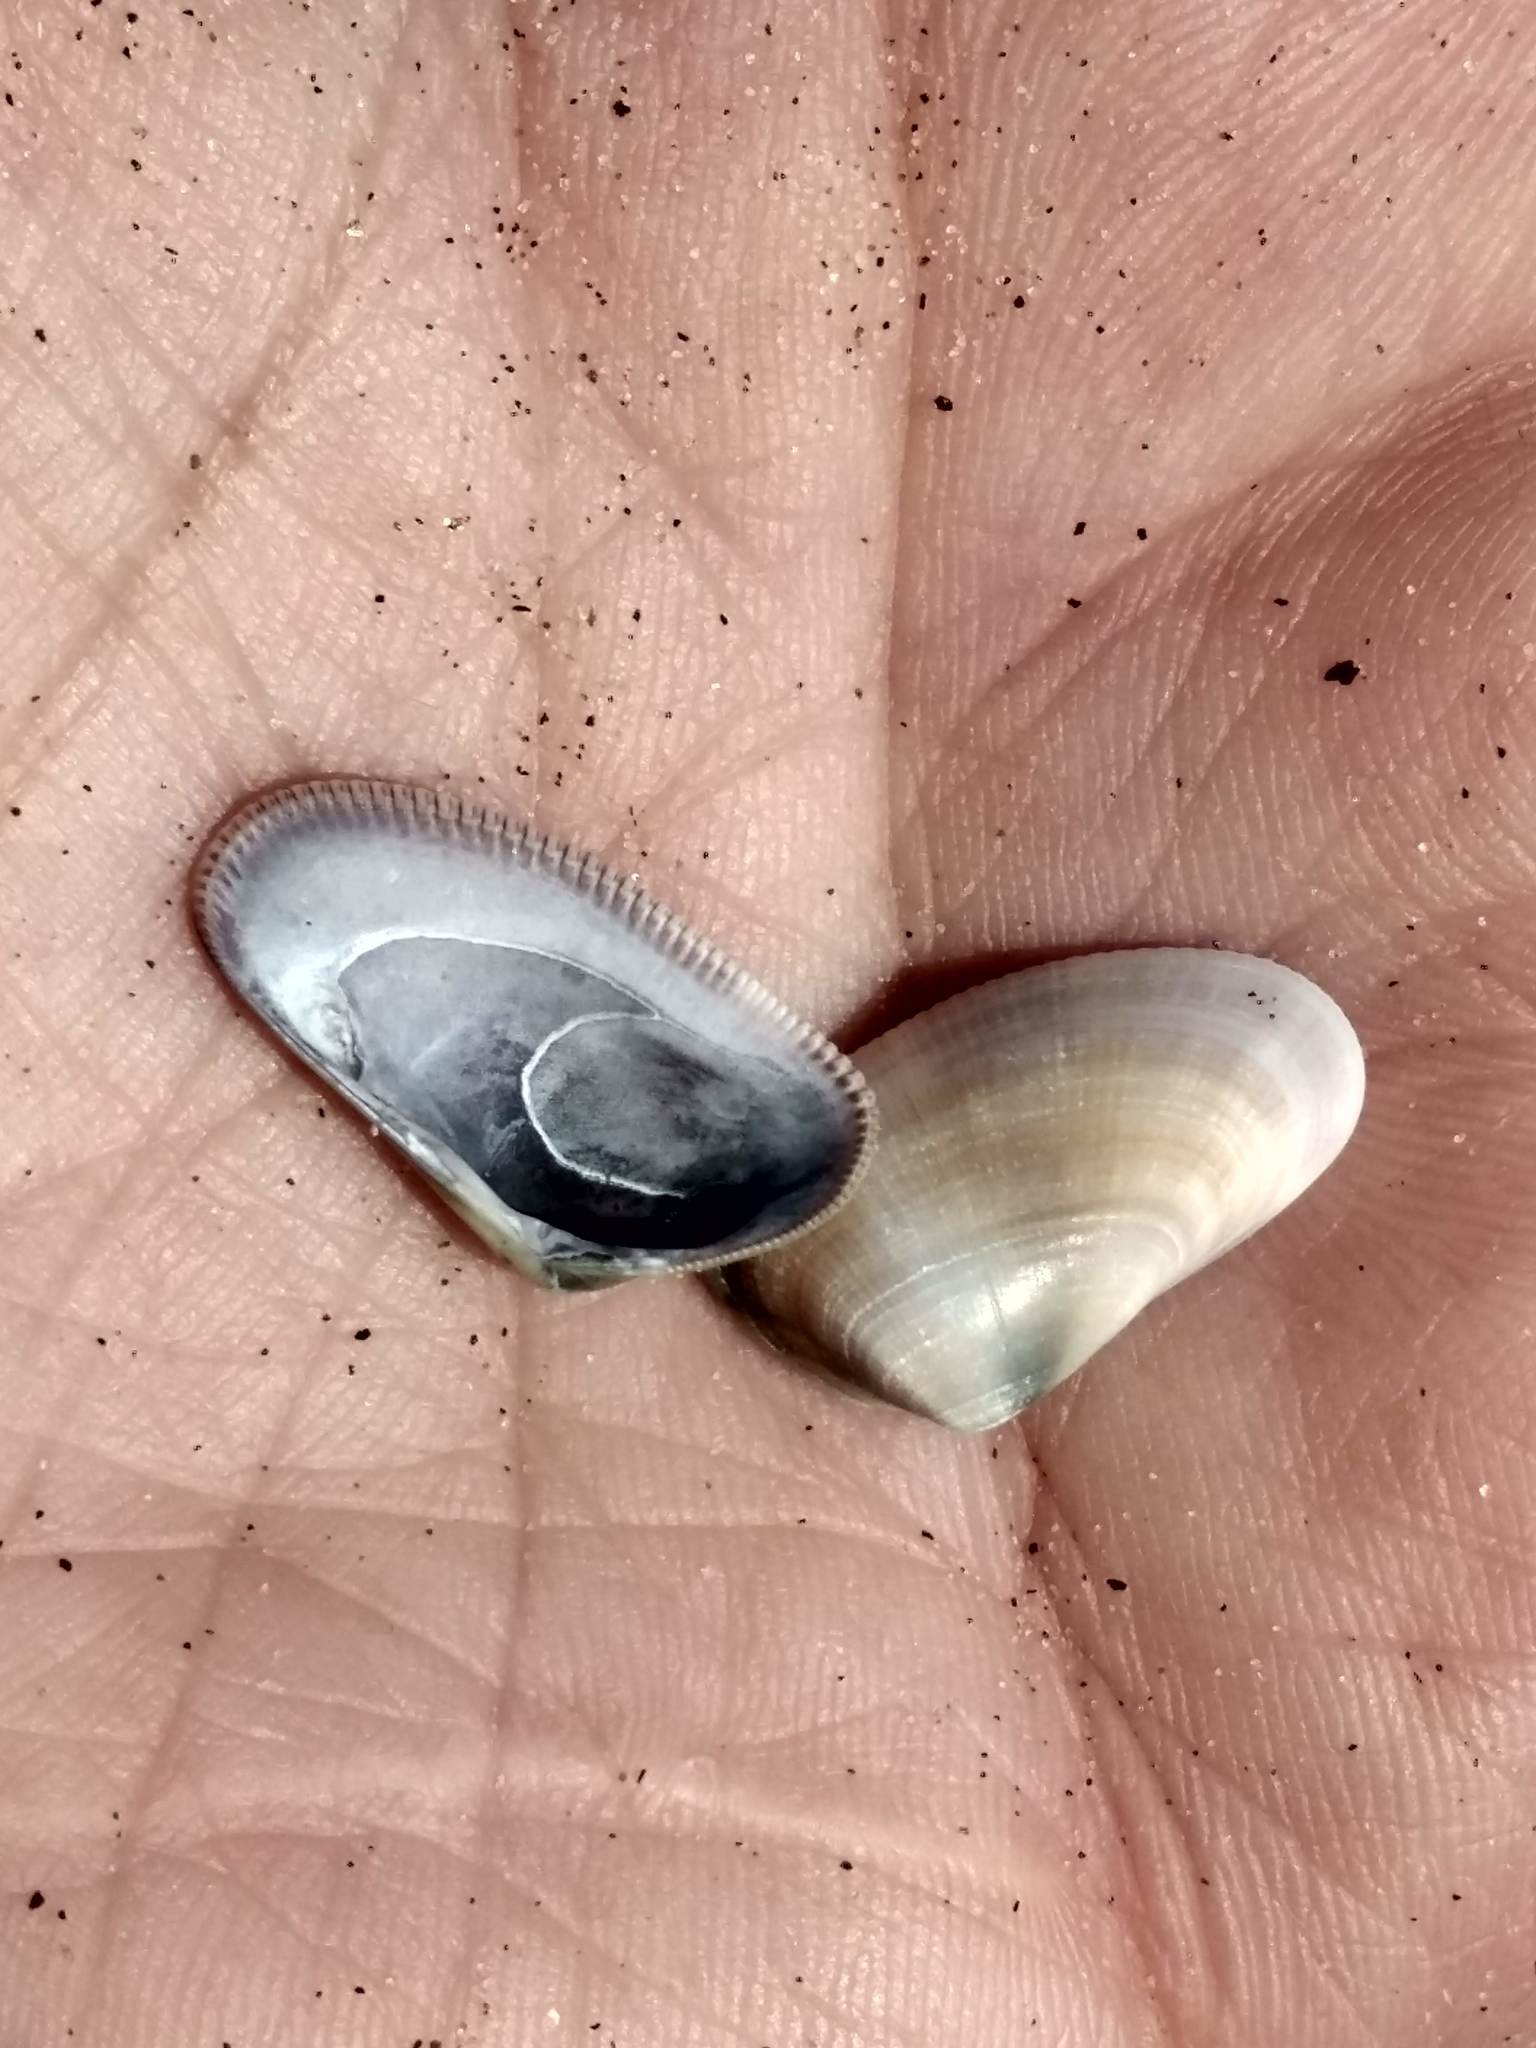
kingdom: Animalia
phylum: Mollusca
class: Bivalvia
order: Cardiida
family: Donacidae
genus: Donax
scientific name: Donax gouldii
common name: Gould beanclam
